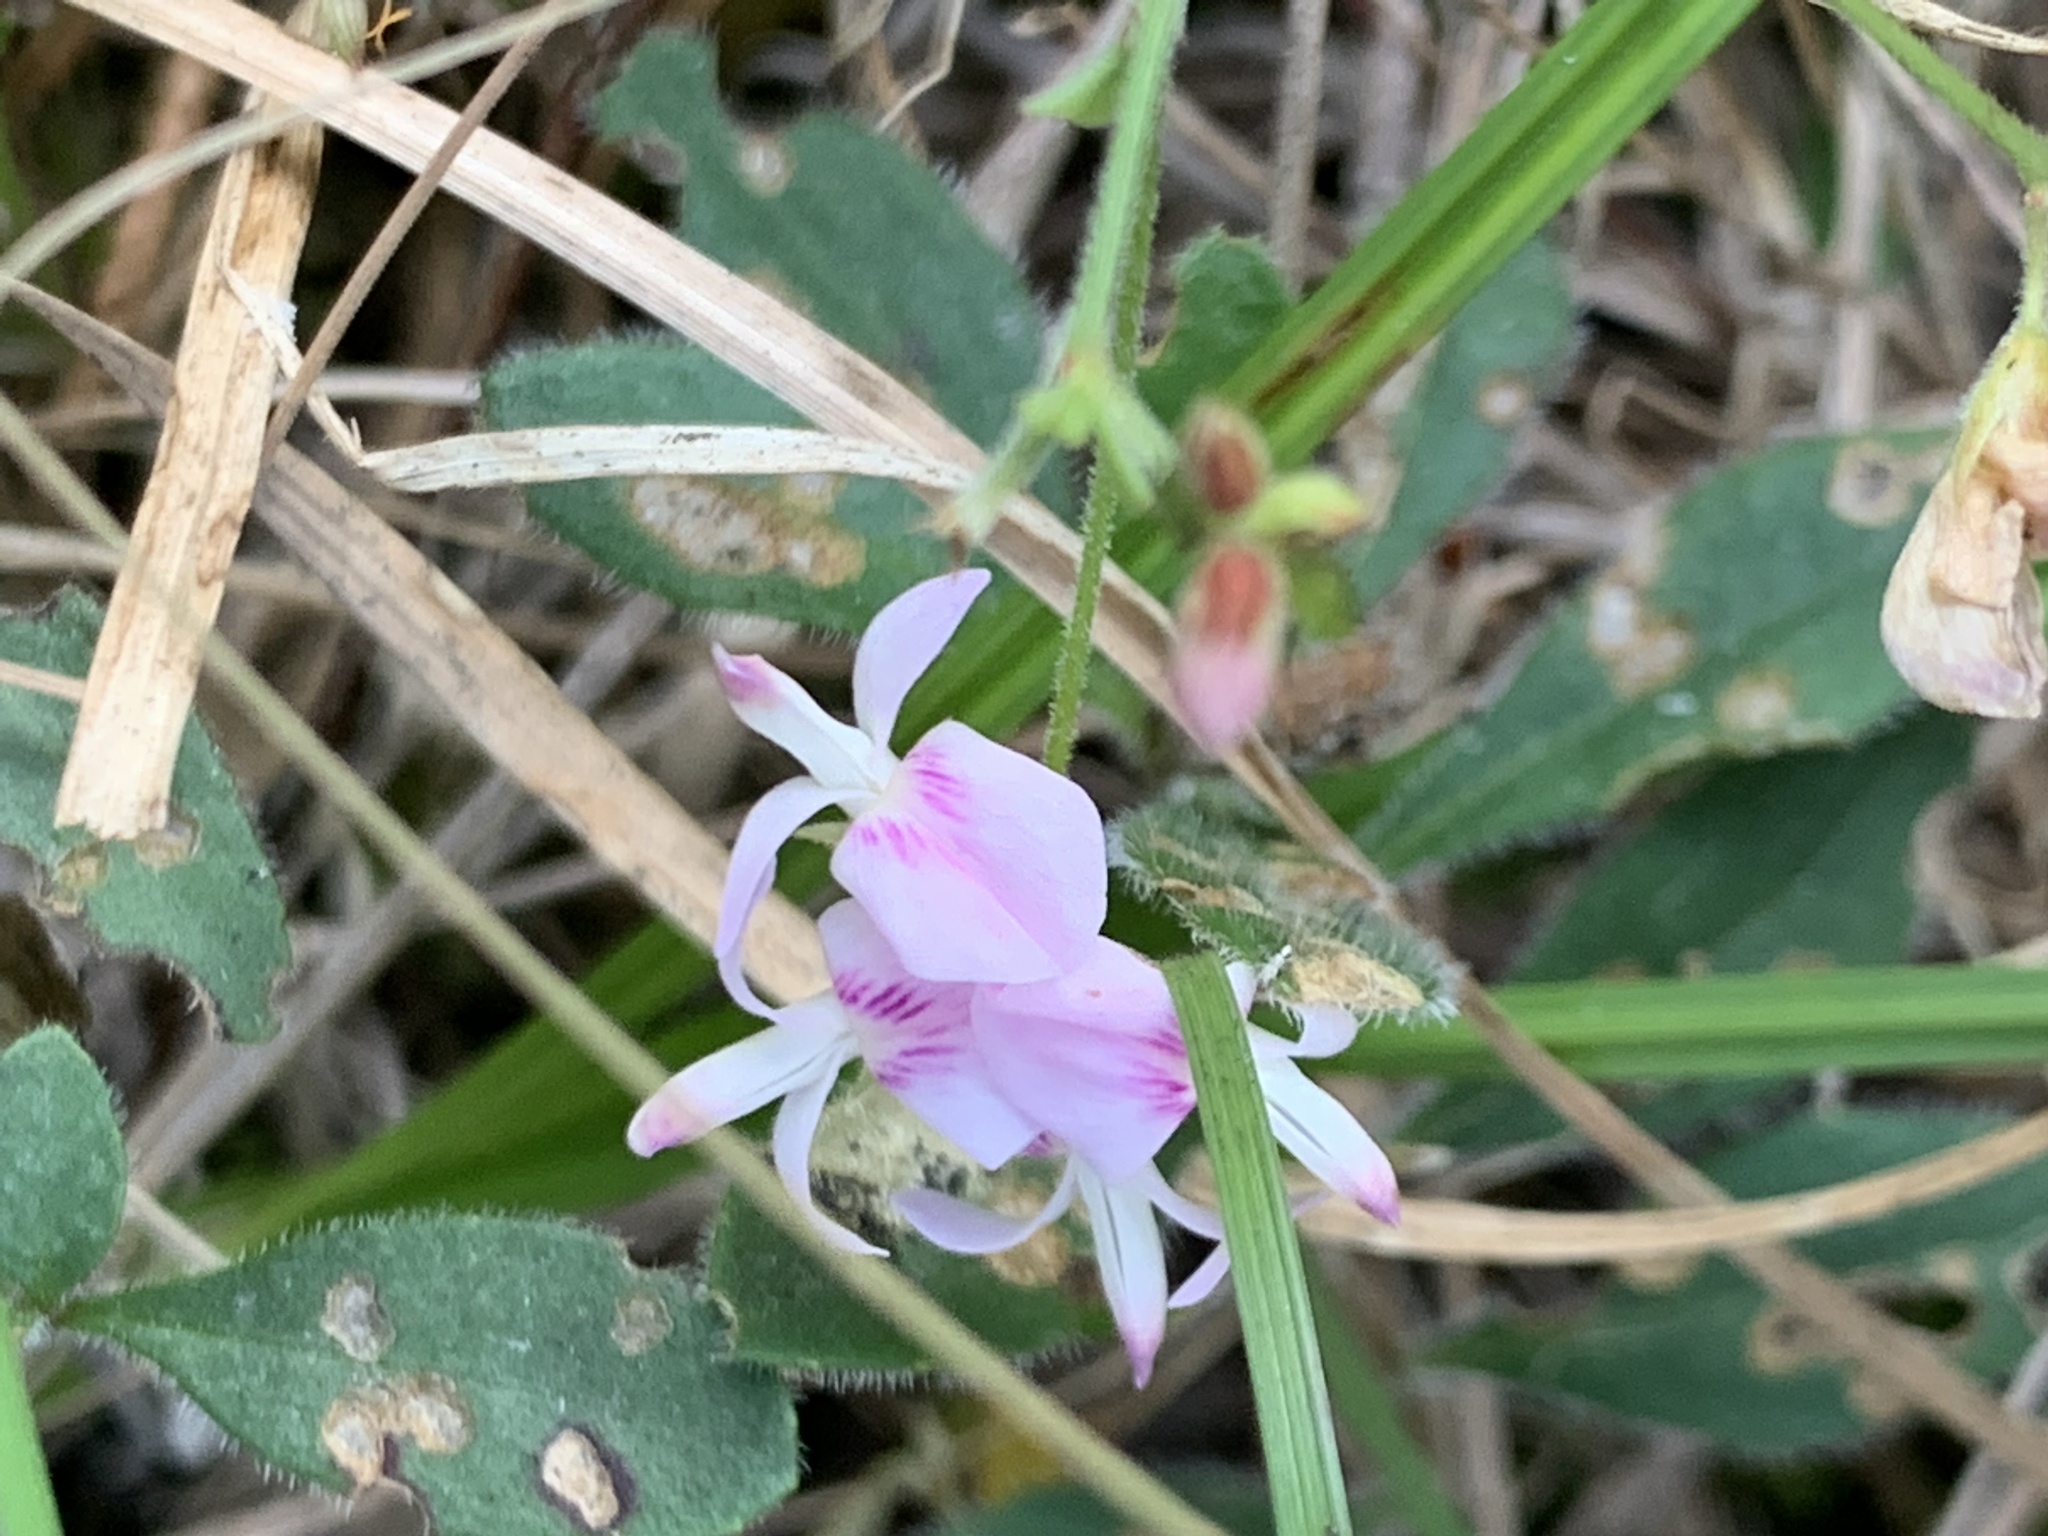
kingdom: Plantae
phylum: Tracheophyta
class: Magnoliopsida
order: Fabales
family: Fabaceae
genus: Lespedeza
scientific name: Lespedeza procumbens
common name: Downy trailing bush-clover
